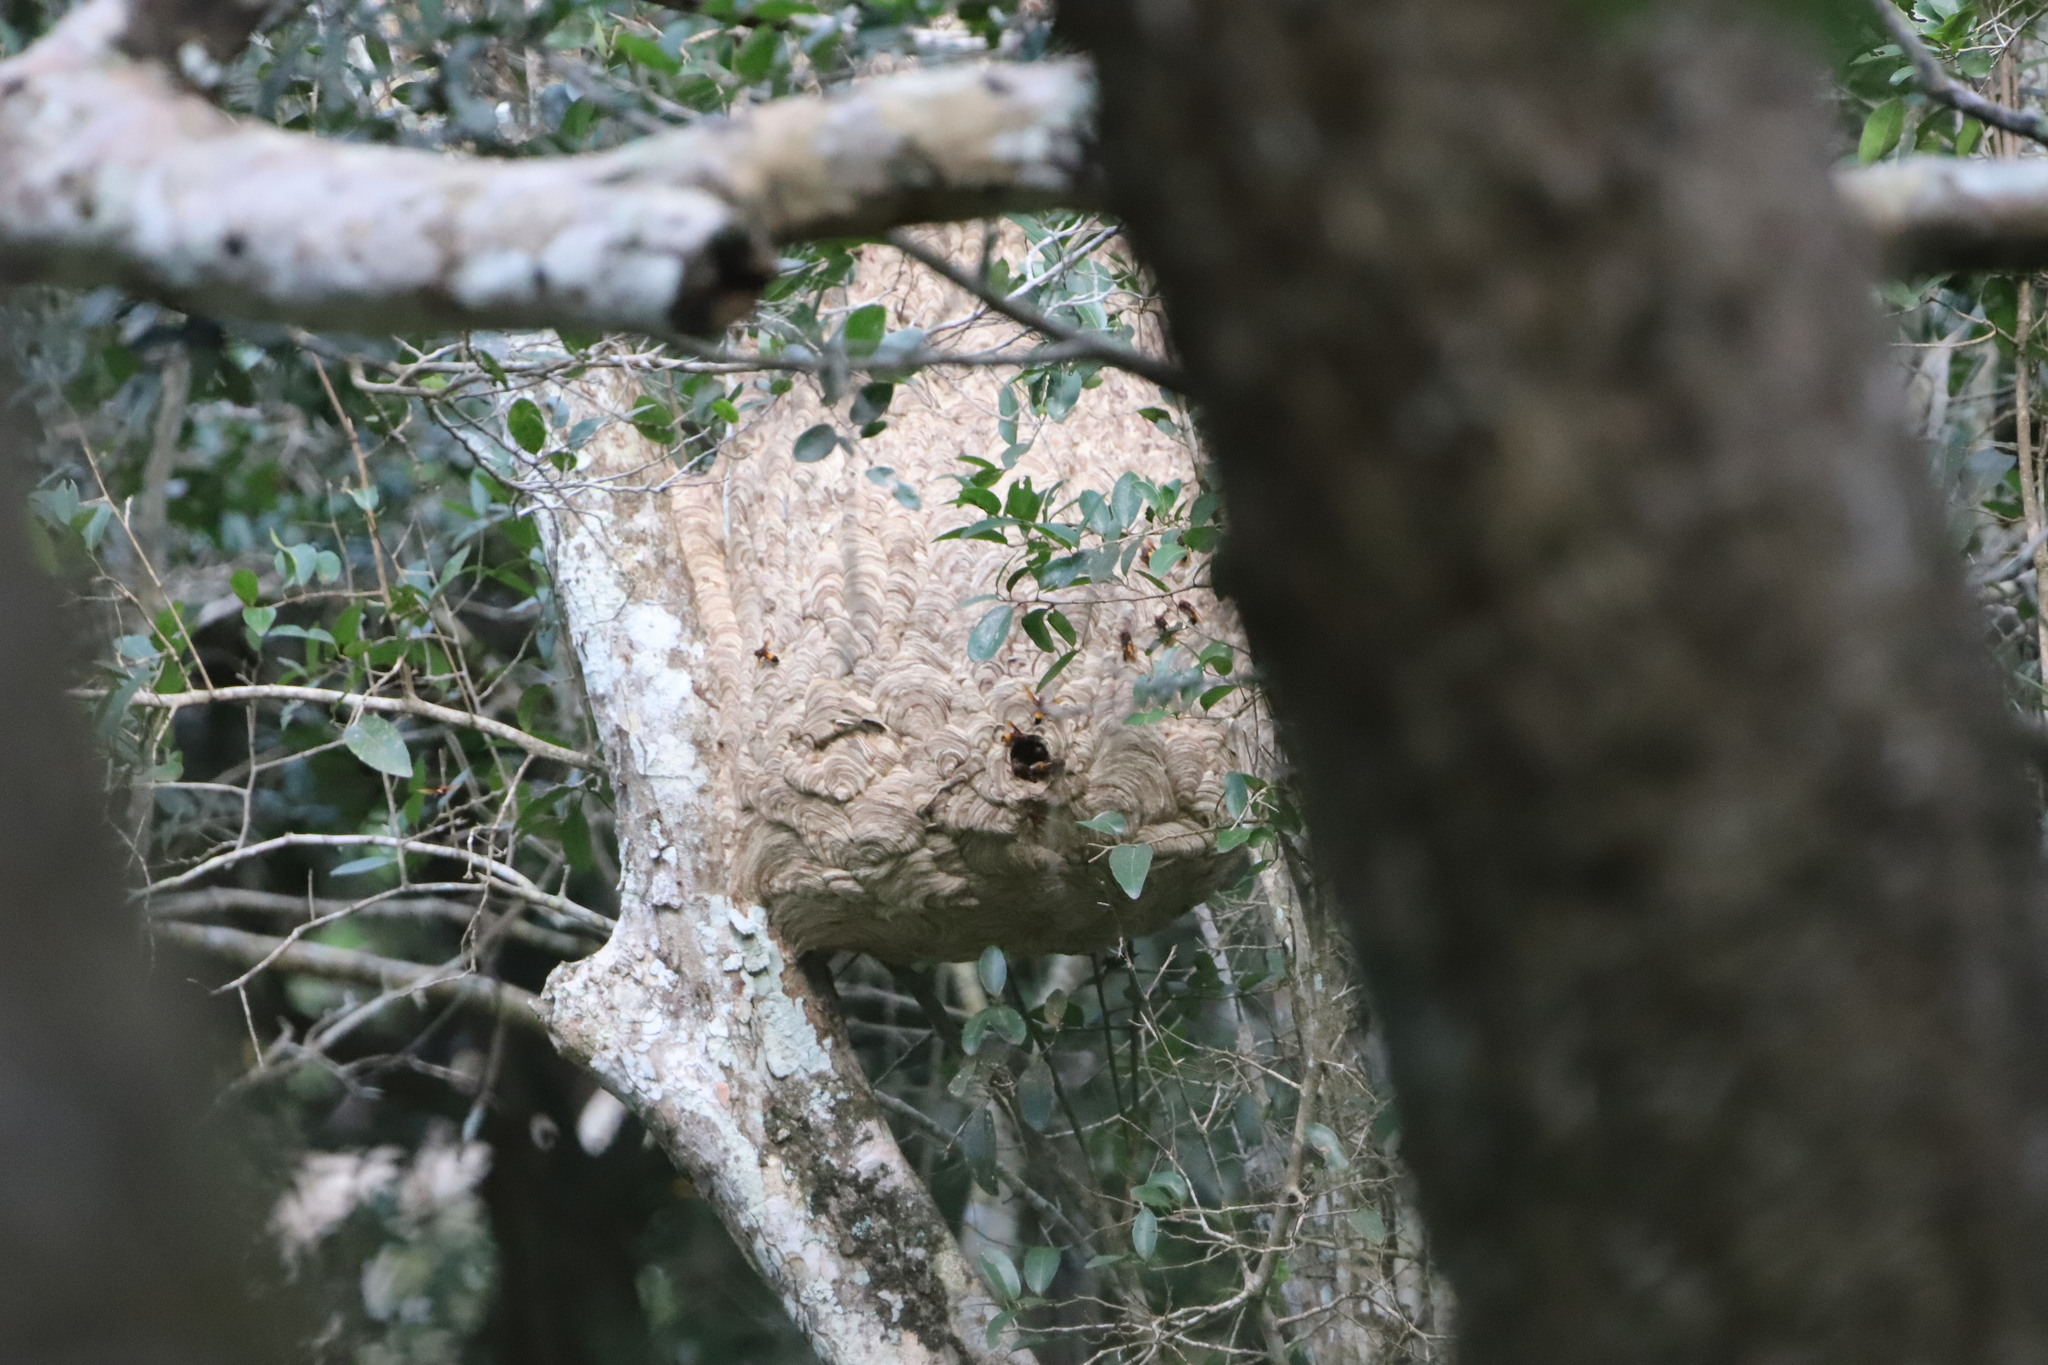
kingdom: Animalia
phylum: Arthropoda
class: Insecta
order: Hymenoptera
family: Vespidae
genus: Vespa
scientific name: Vespa affinis
